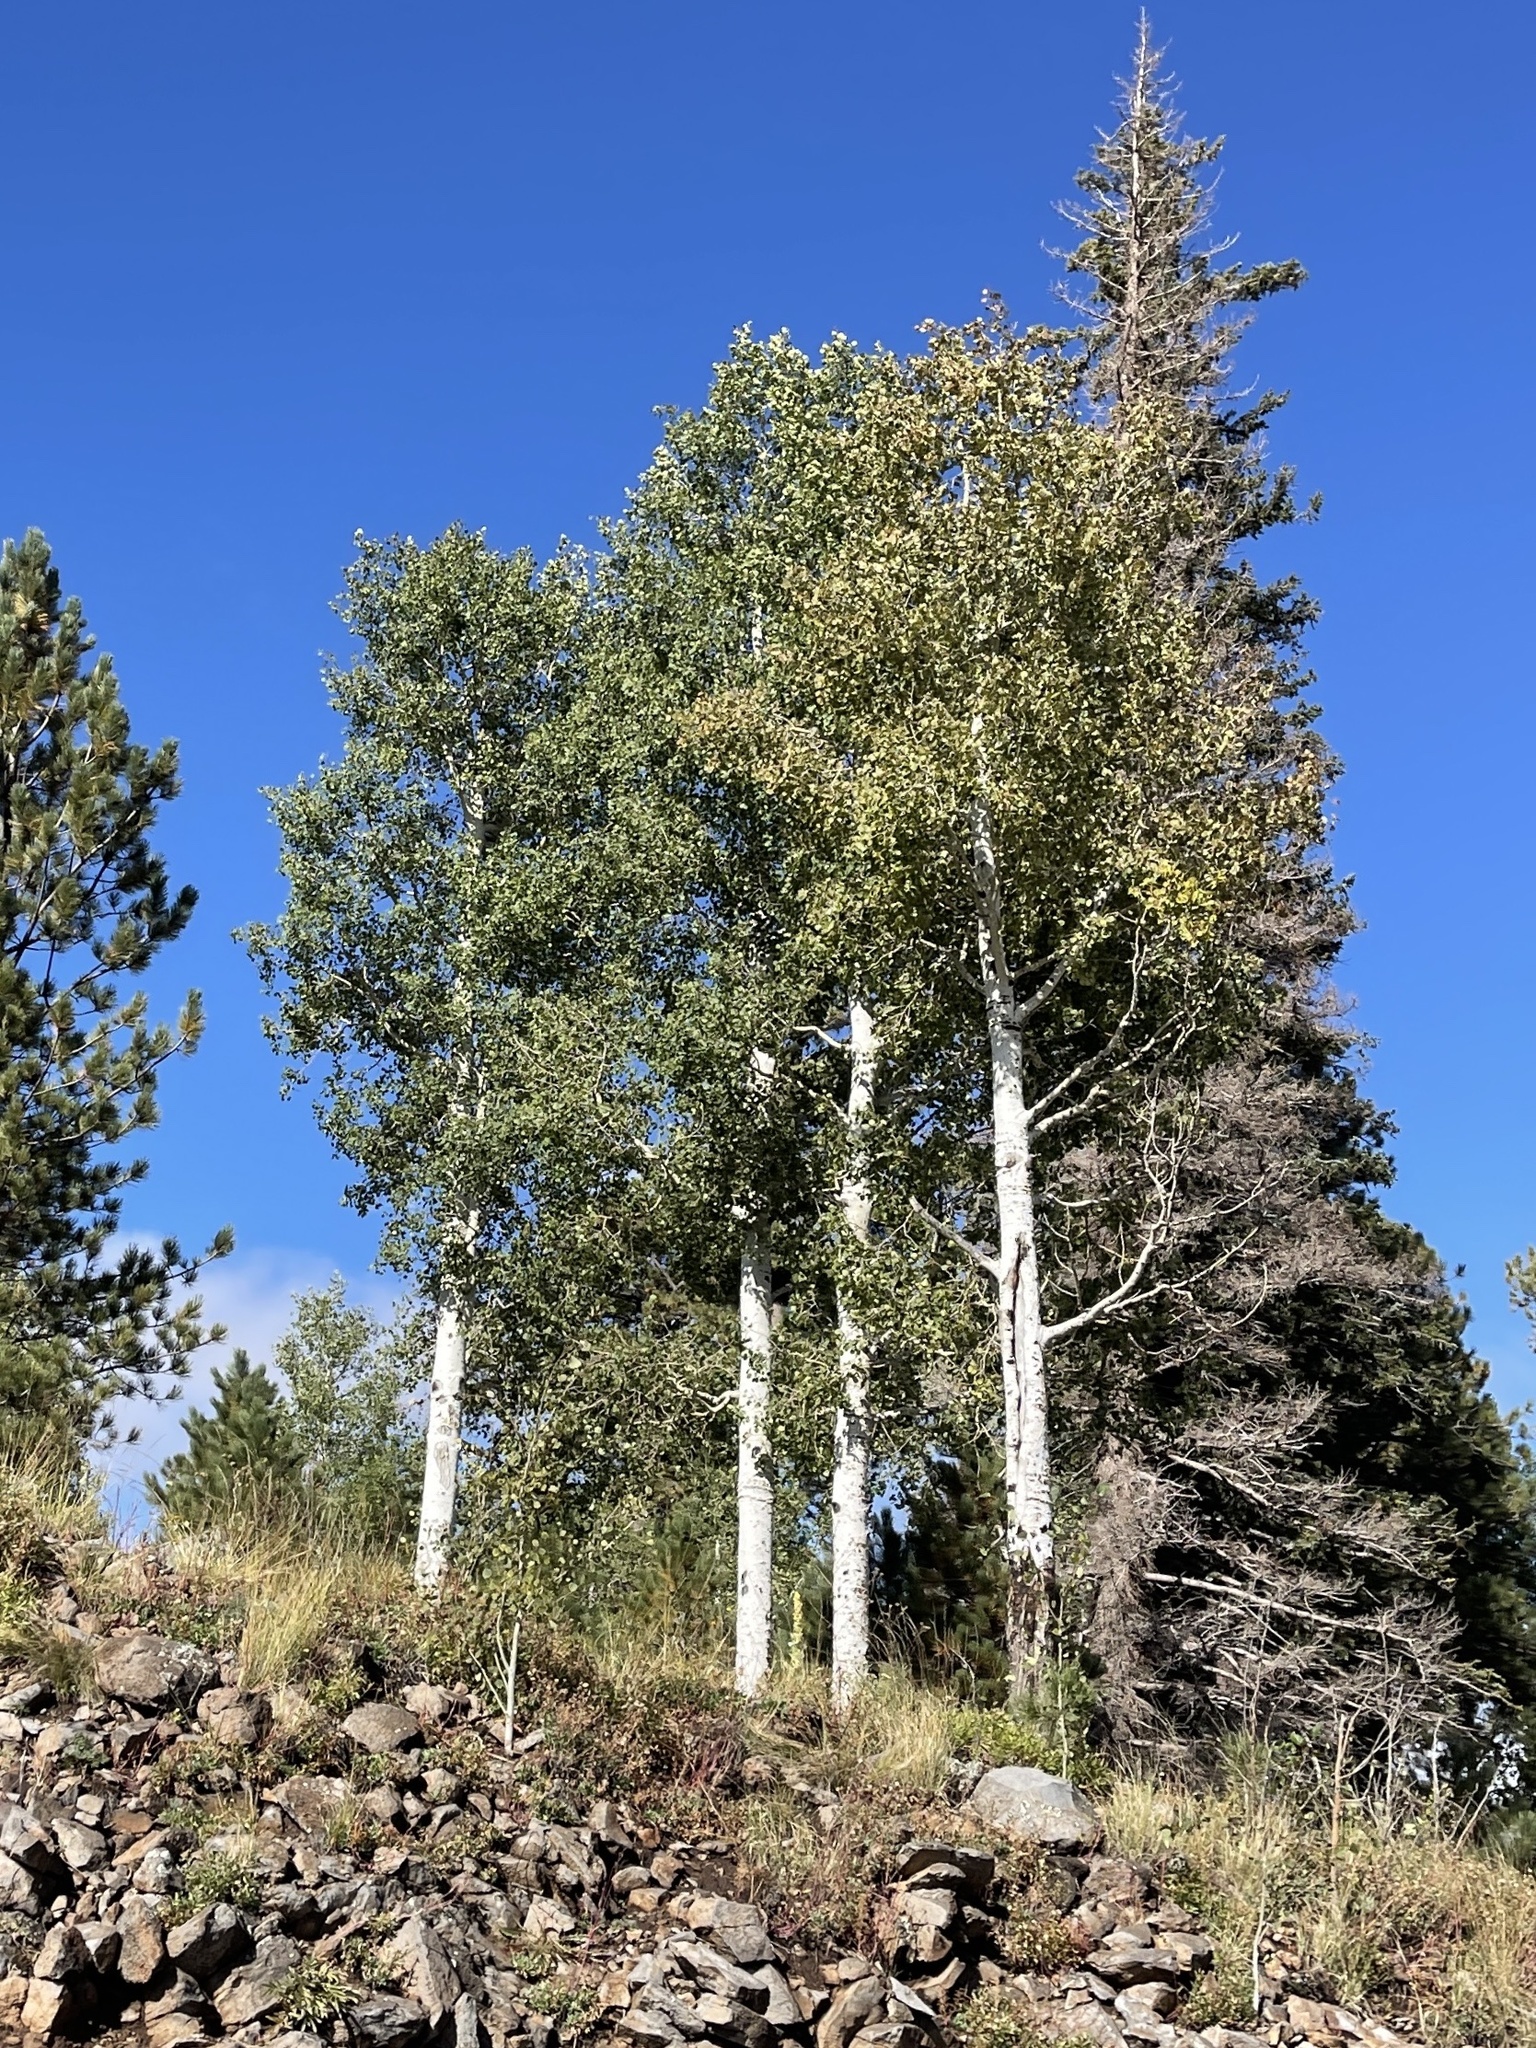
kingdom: Plantae
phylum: Tracheophyta
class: Magnoliopsida
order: Malpighiales
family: Salicaceae
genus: Populus
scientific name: Populus tremuloides
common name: Quaking aspen
